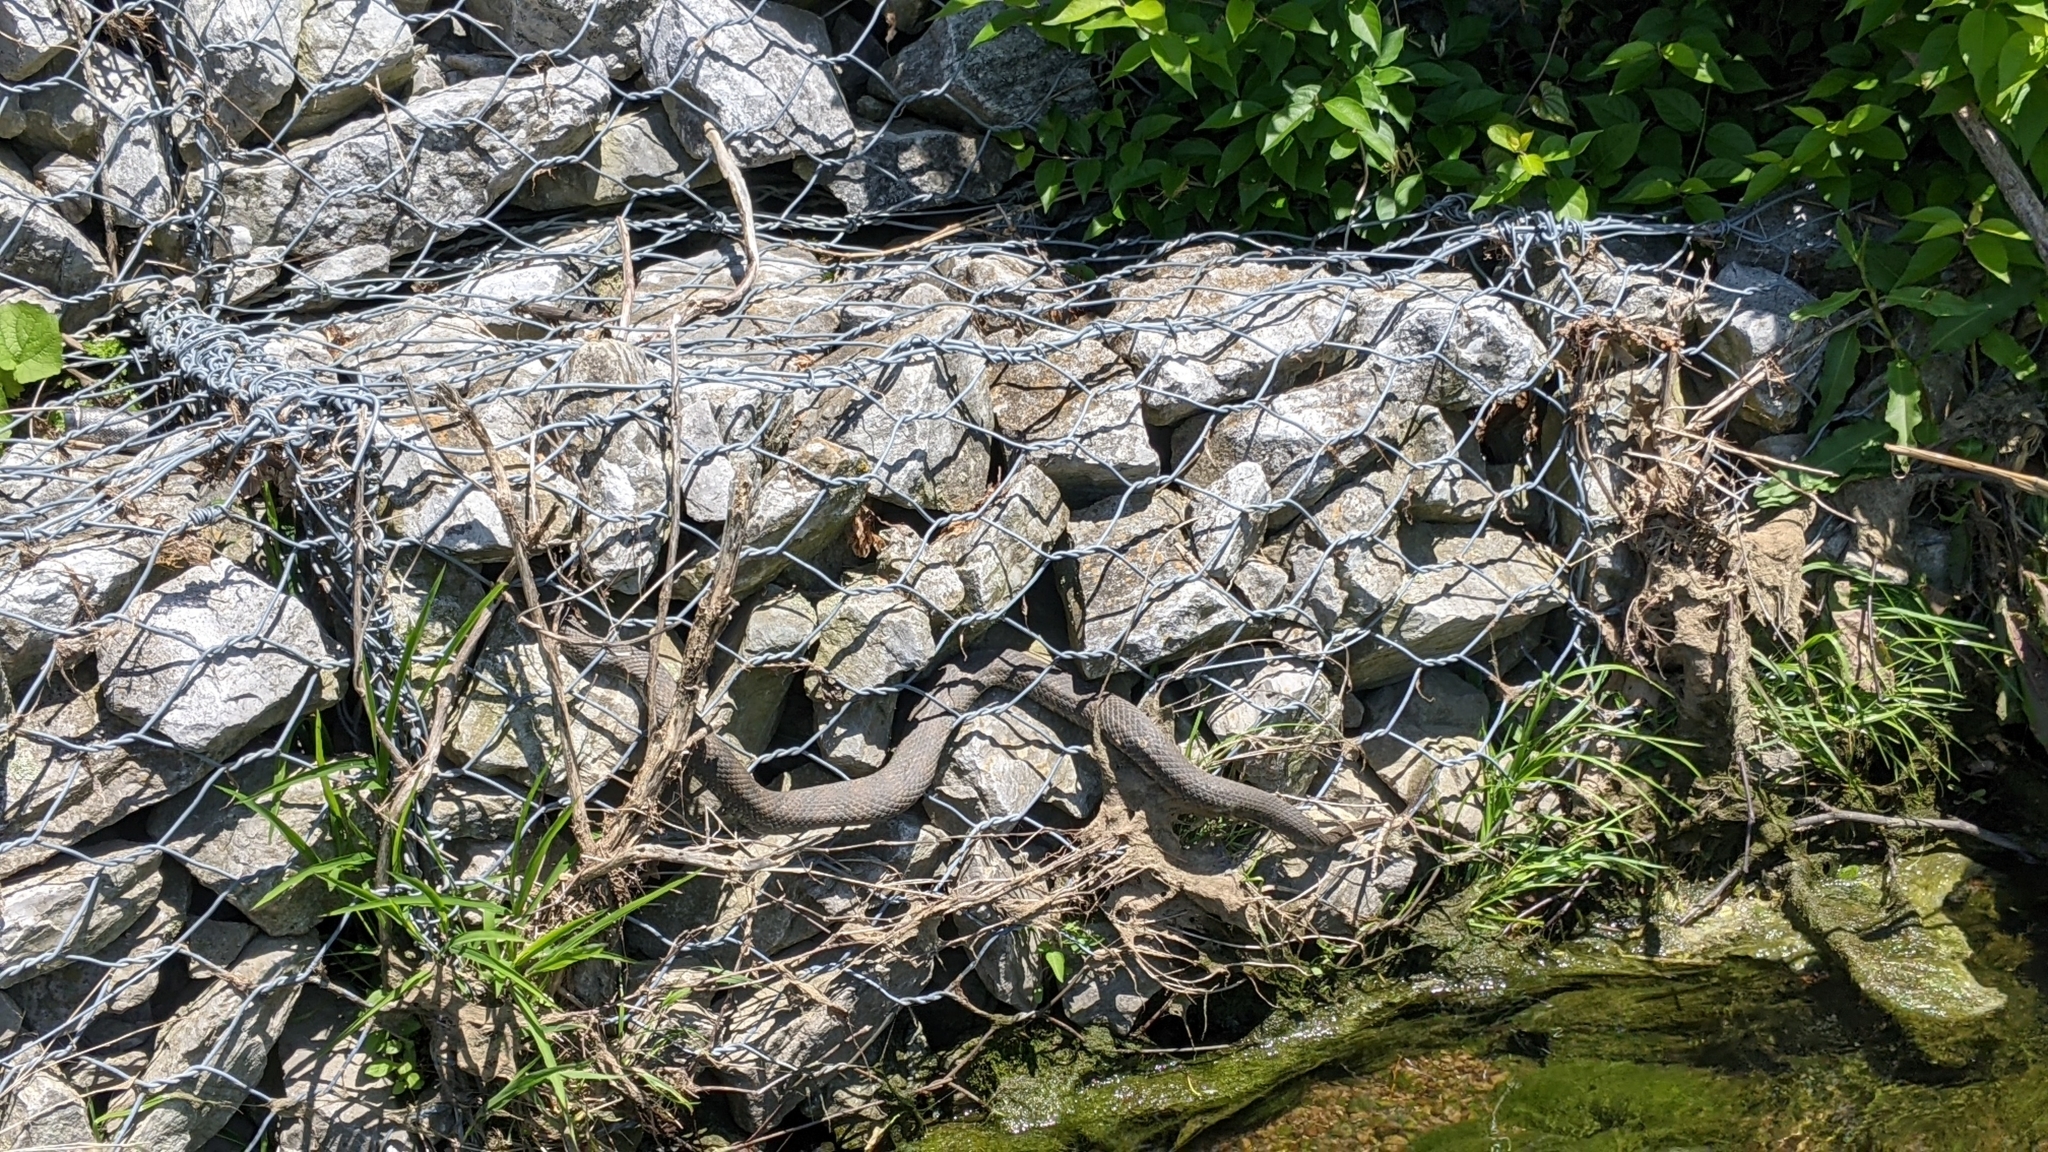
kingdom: Animalia
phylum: Chordata
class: Squamata
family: Colubridae
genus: Nerodia
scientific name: Nerodia sipedon
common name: Northern water snake
